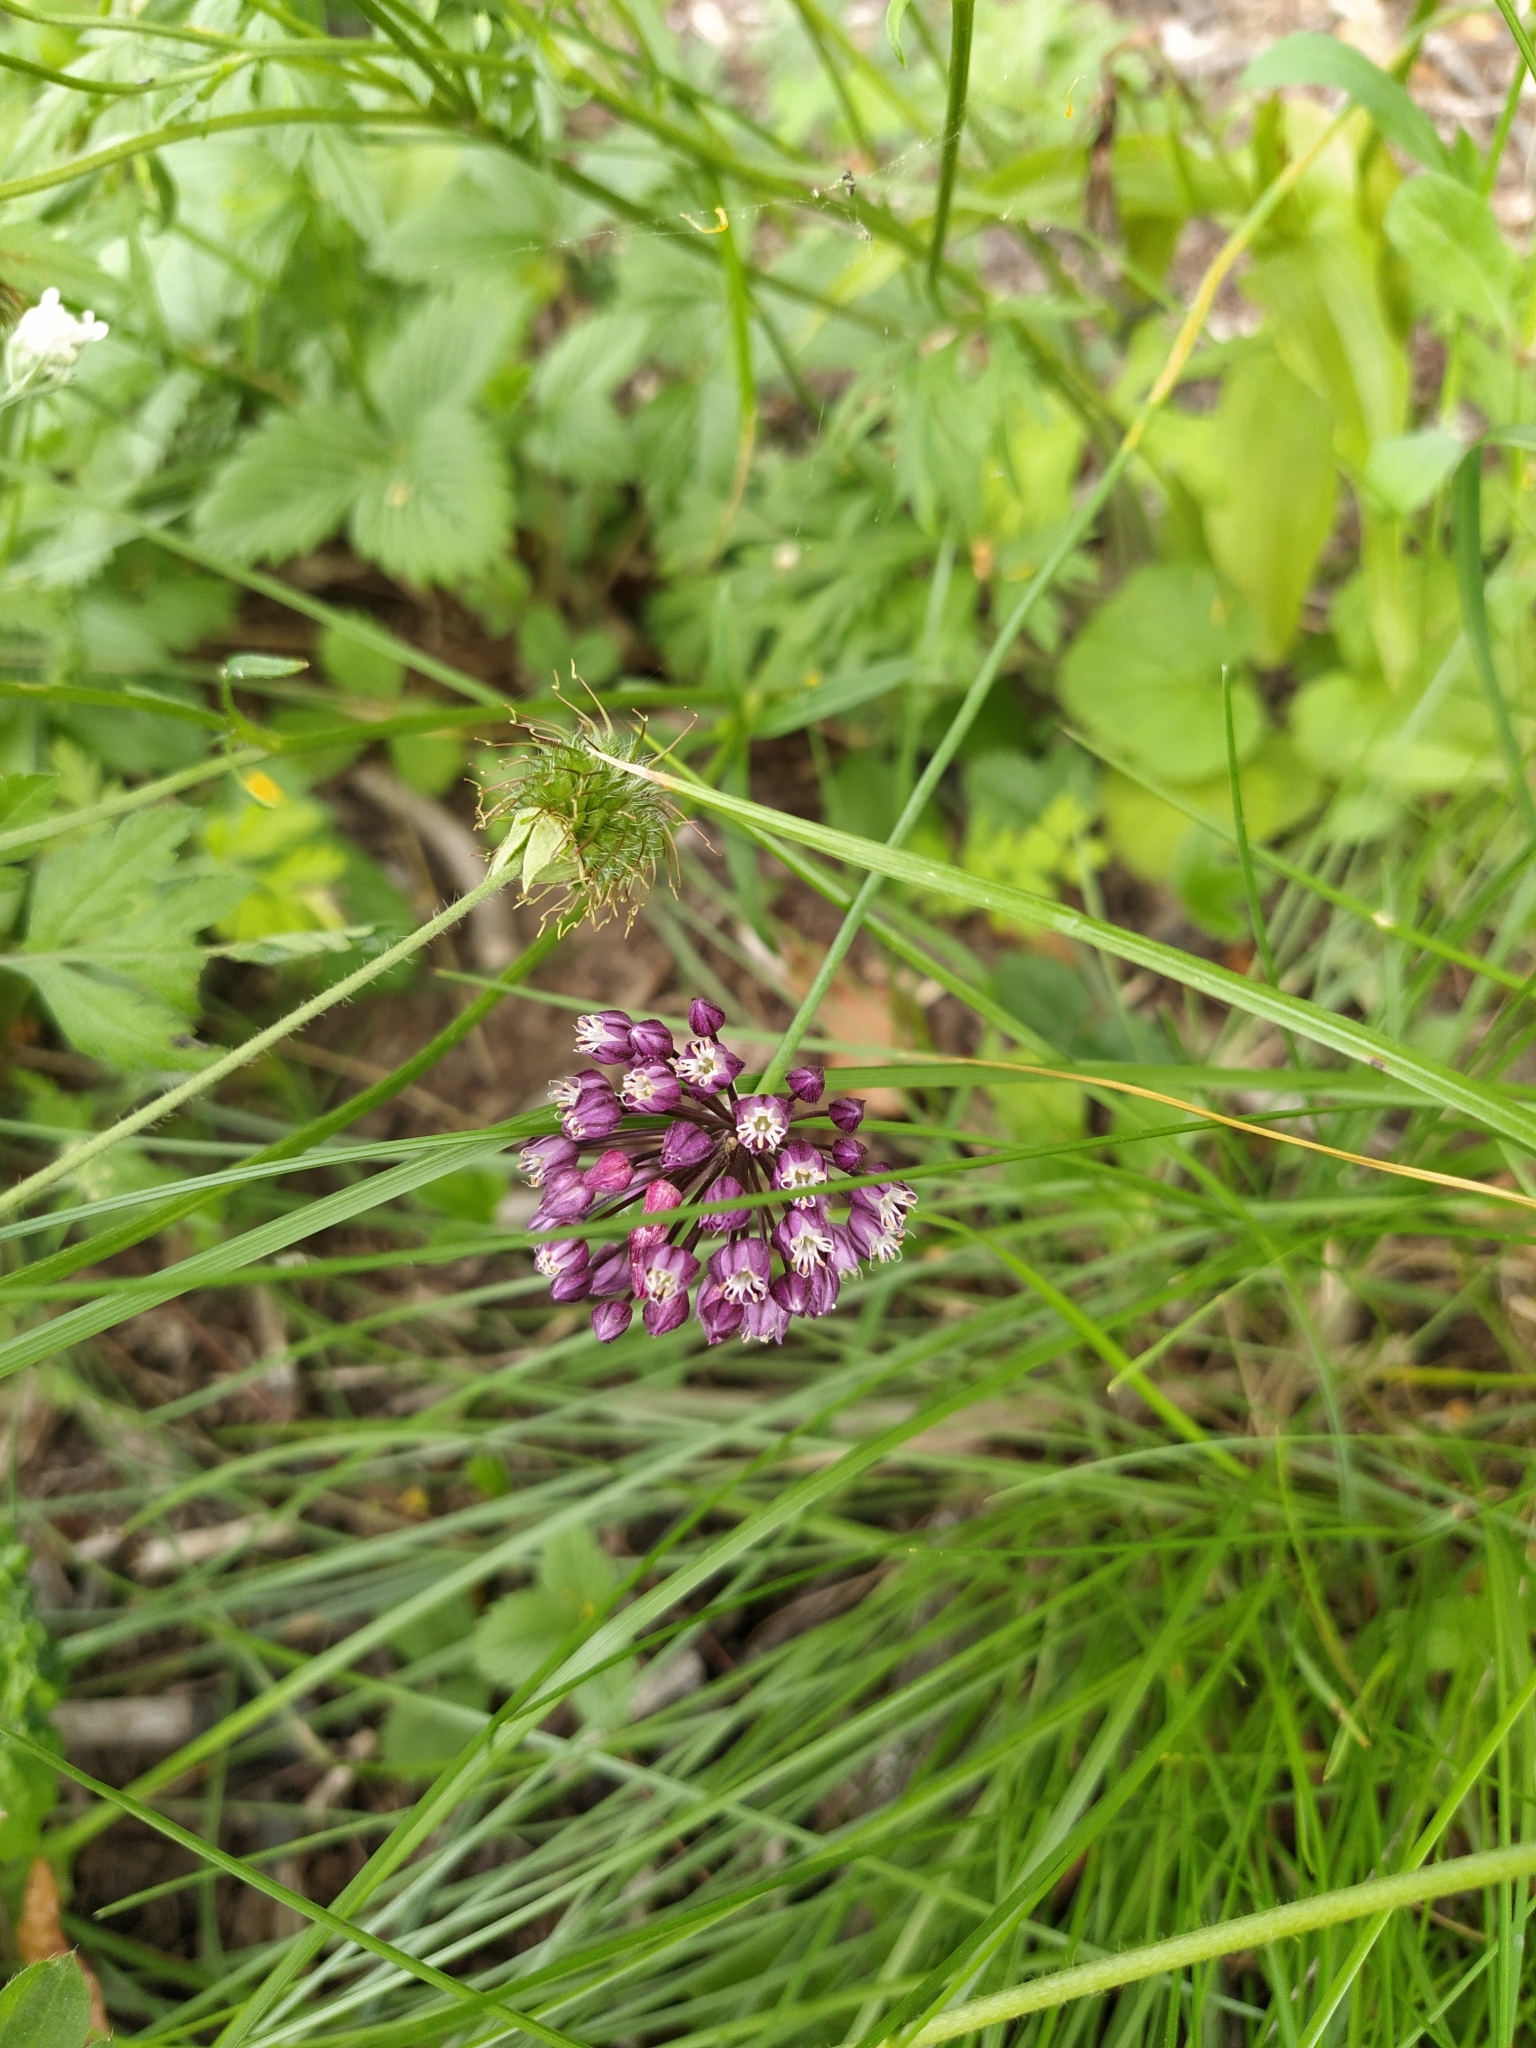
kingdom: Plantae
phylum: Tracheophyta
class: Liliopsida
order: Asparagales
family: Amaryllidaceae
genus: Allium
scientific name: Allium rotundum
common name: Sand leek
